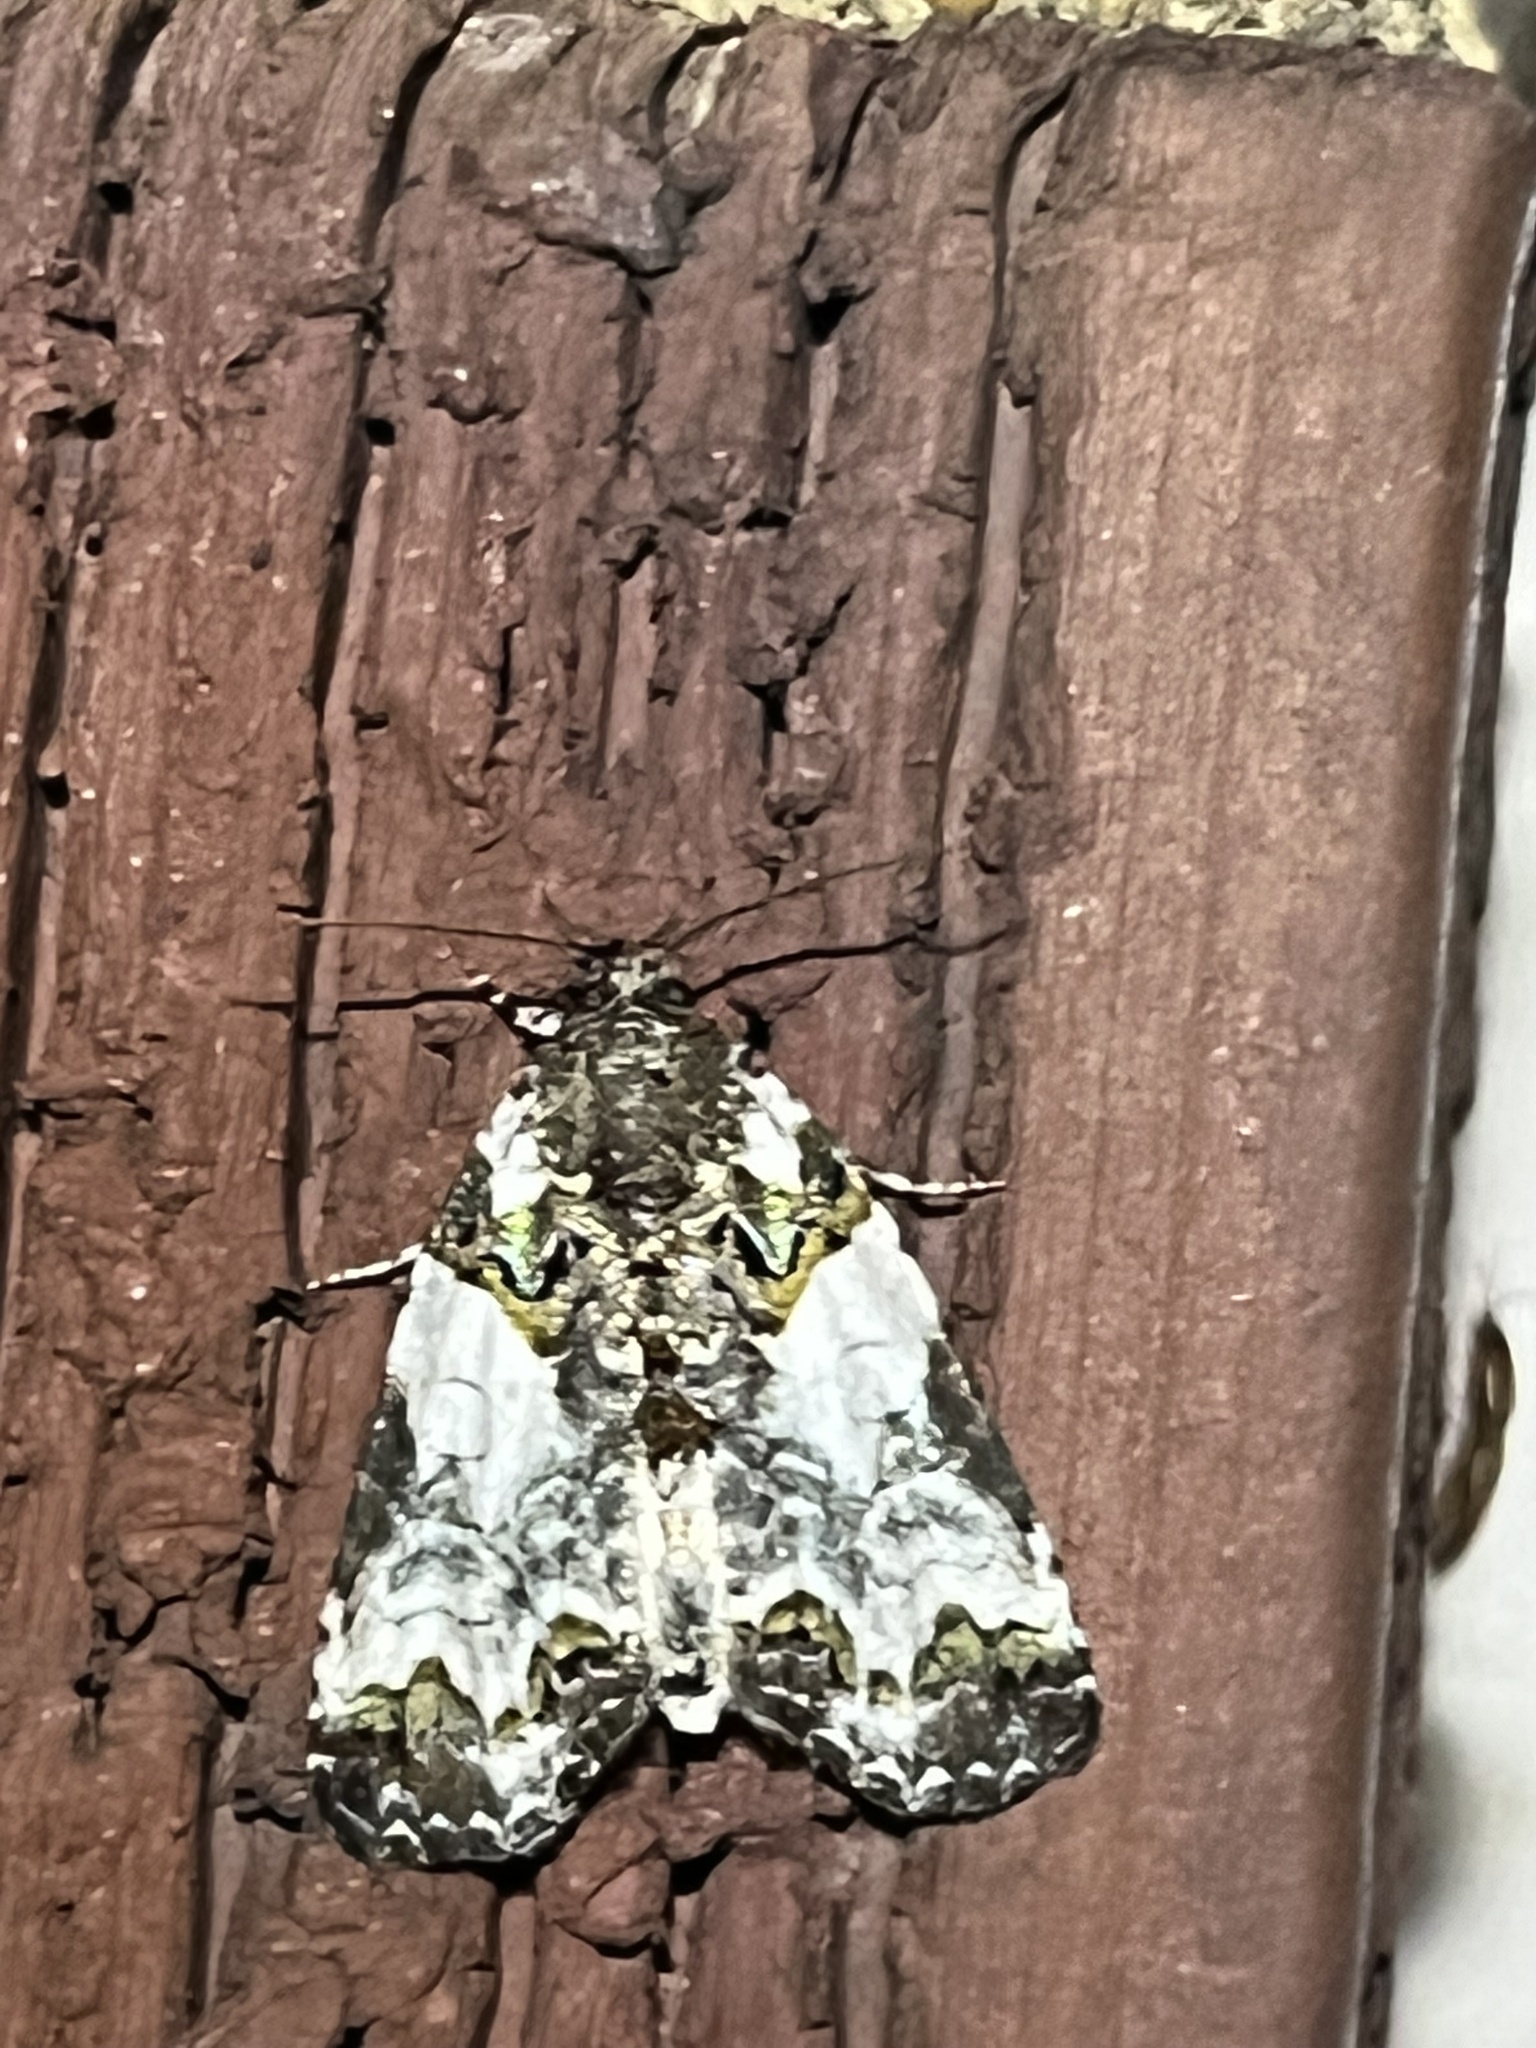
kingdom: Animalia
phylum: Arthropoda
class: Insecta
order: Lepidoptera
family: Noctuidae
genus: Cerma
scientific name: Cerma cerintha
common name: Tufted bird-dropping moth
